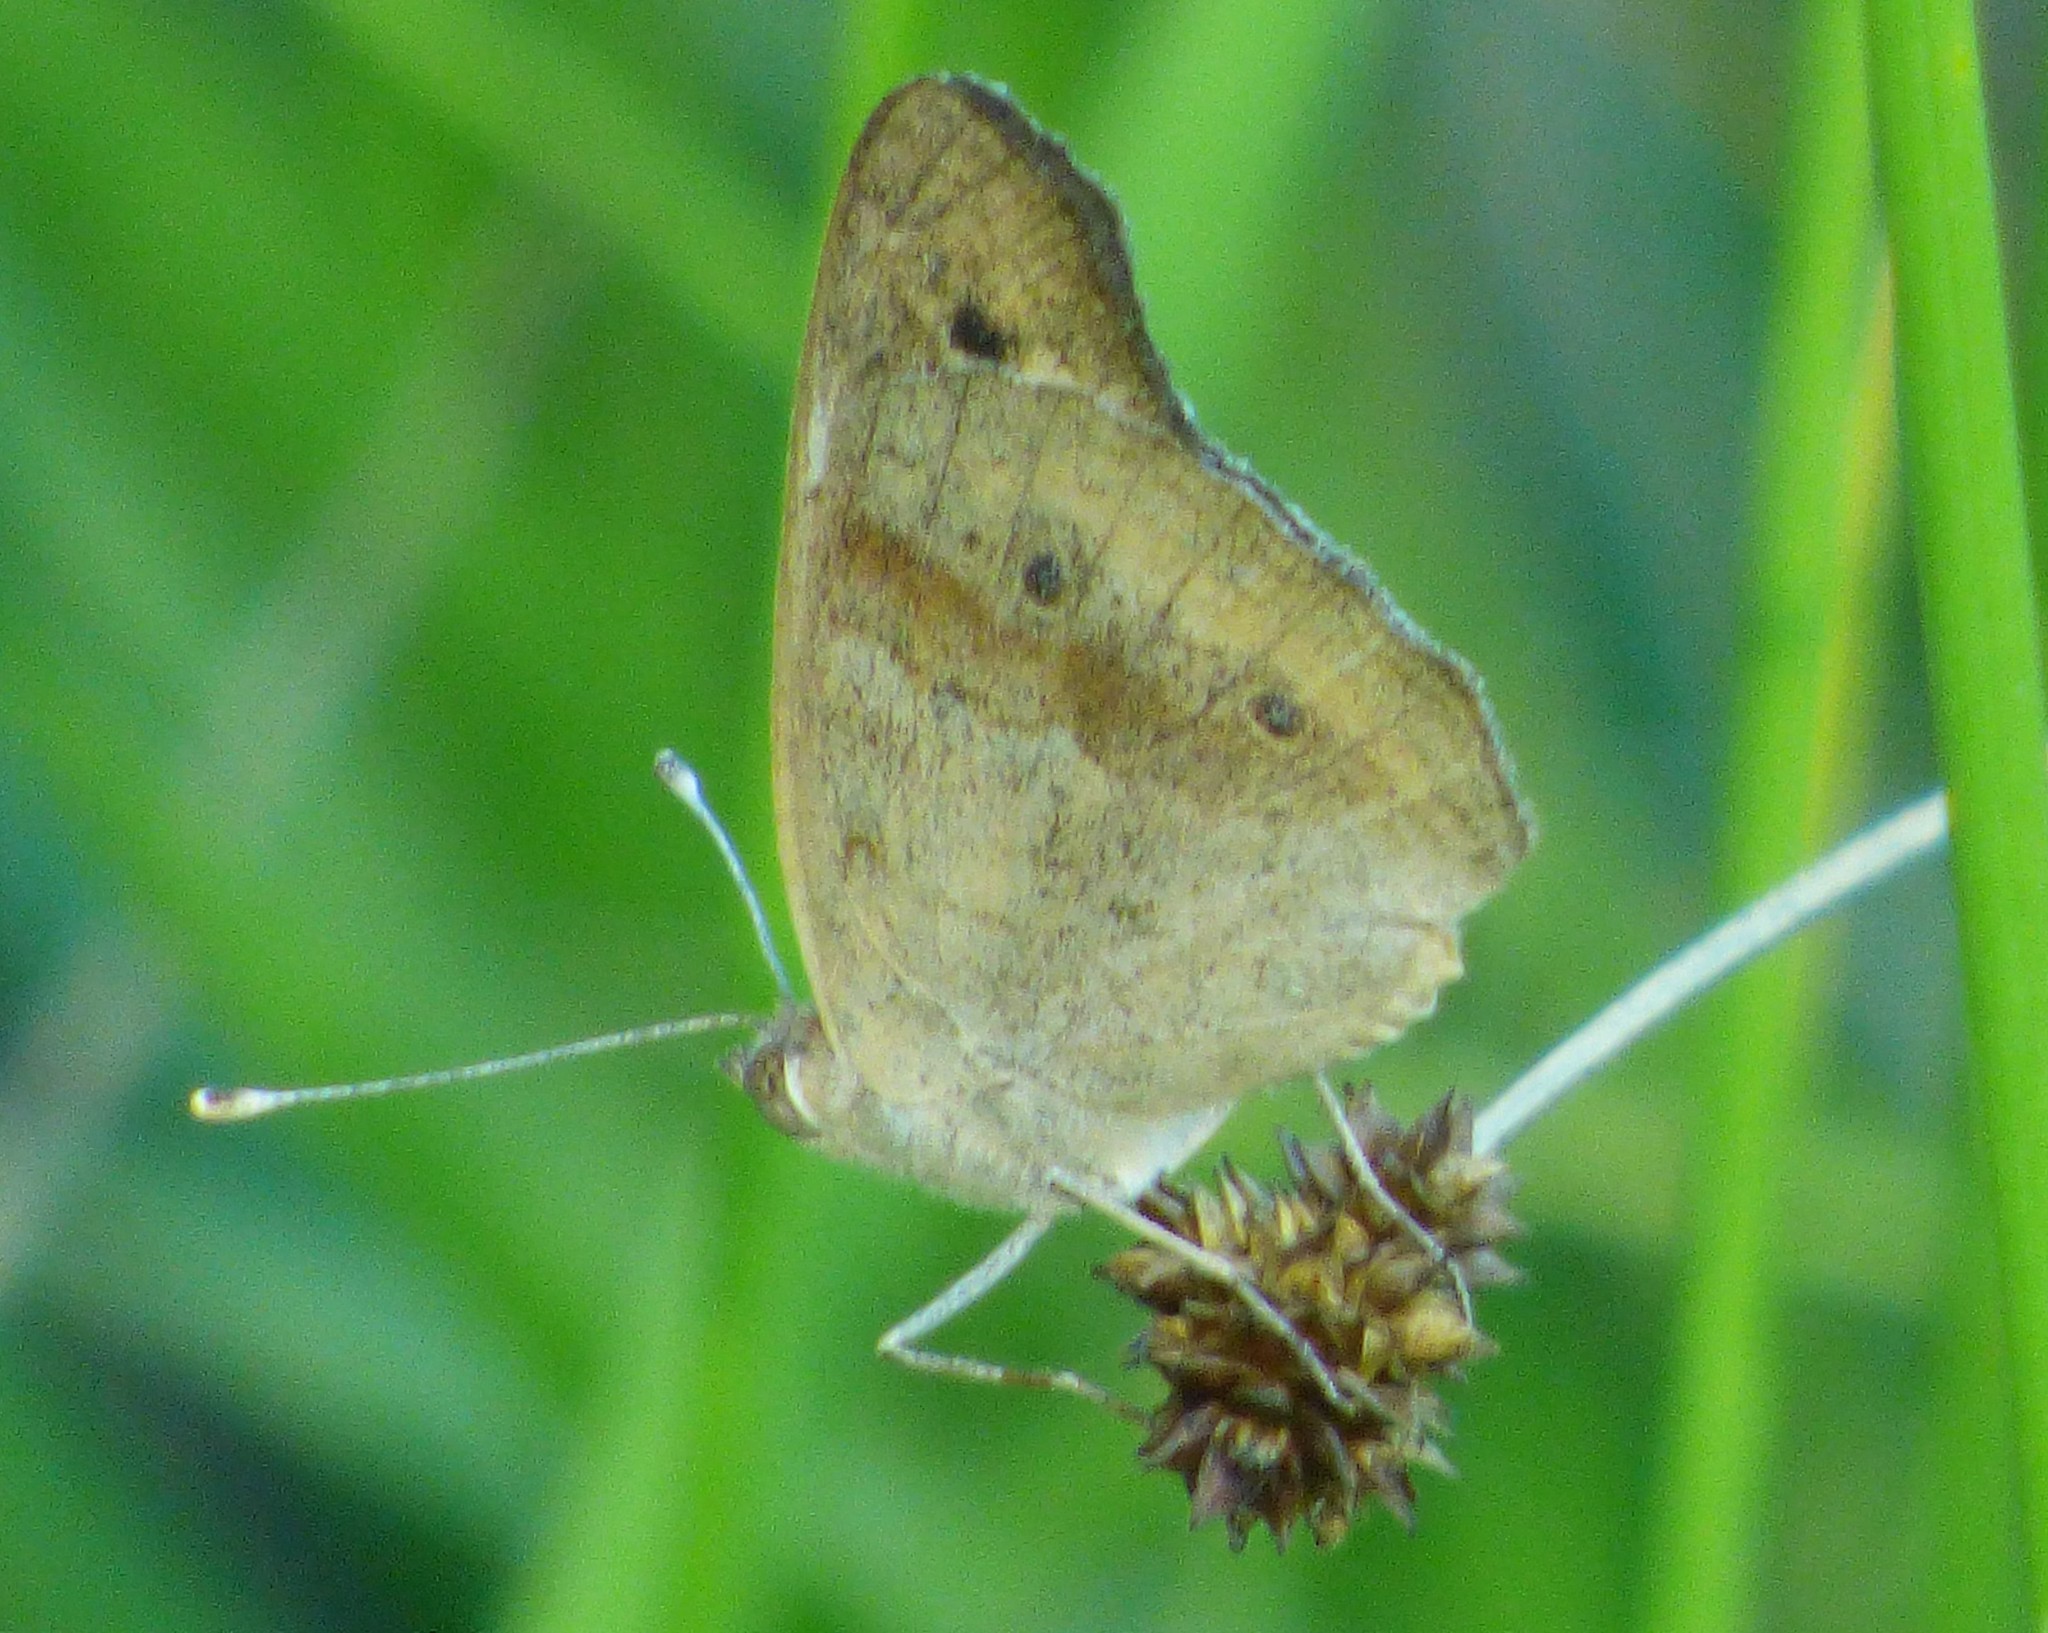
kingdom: Animalia
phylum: Arthropoda
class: Insecta
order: Lepidoptera
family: Nymphalidae
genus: Junonia
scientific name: Junonia coenia
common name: Common buckeye
